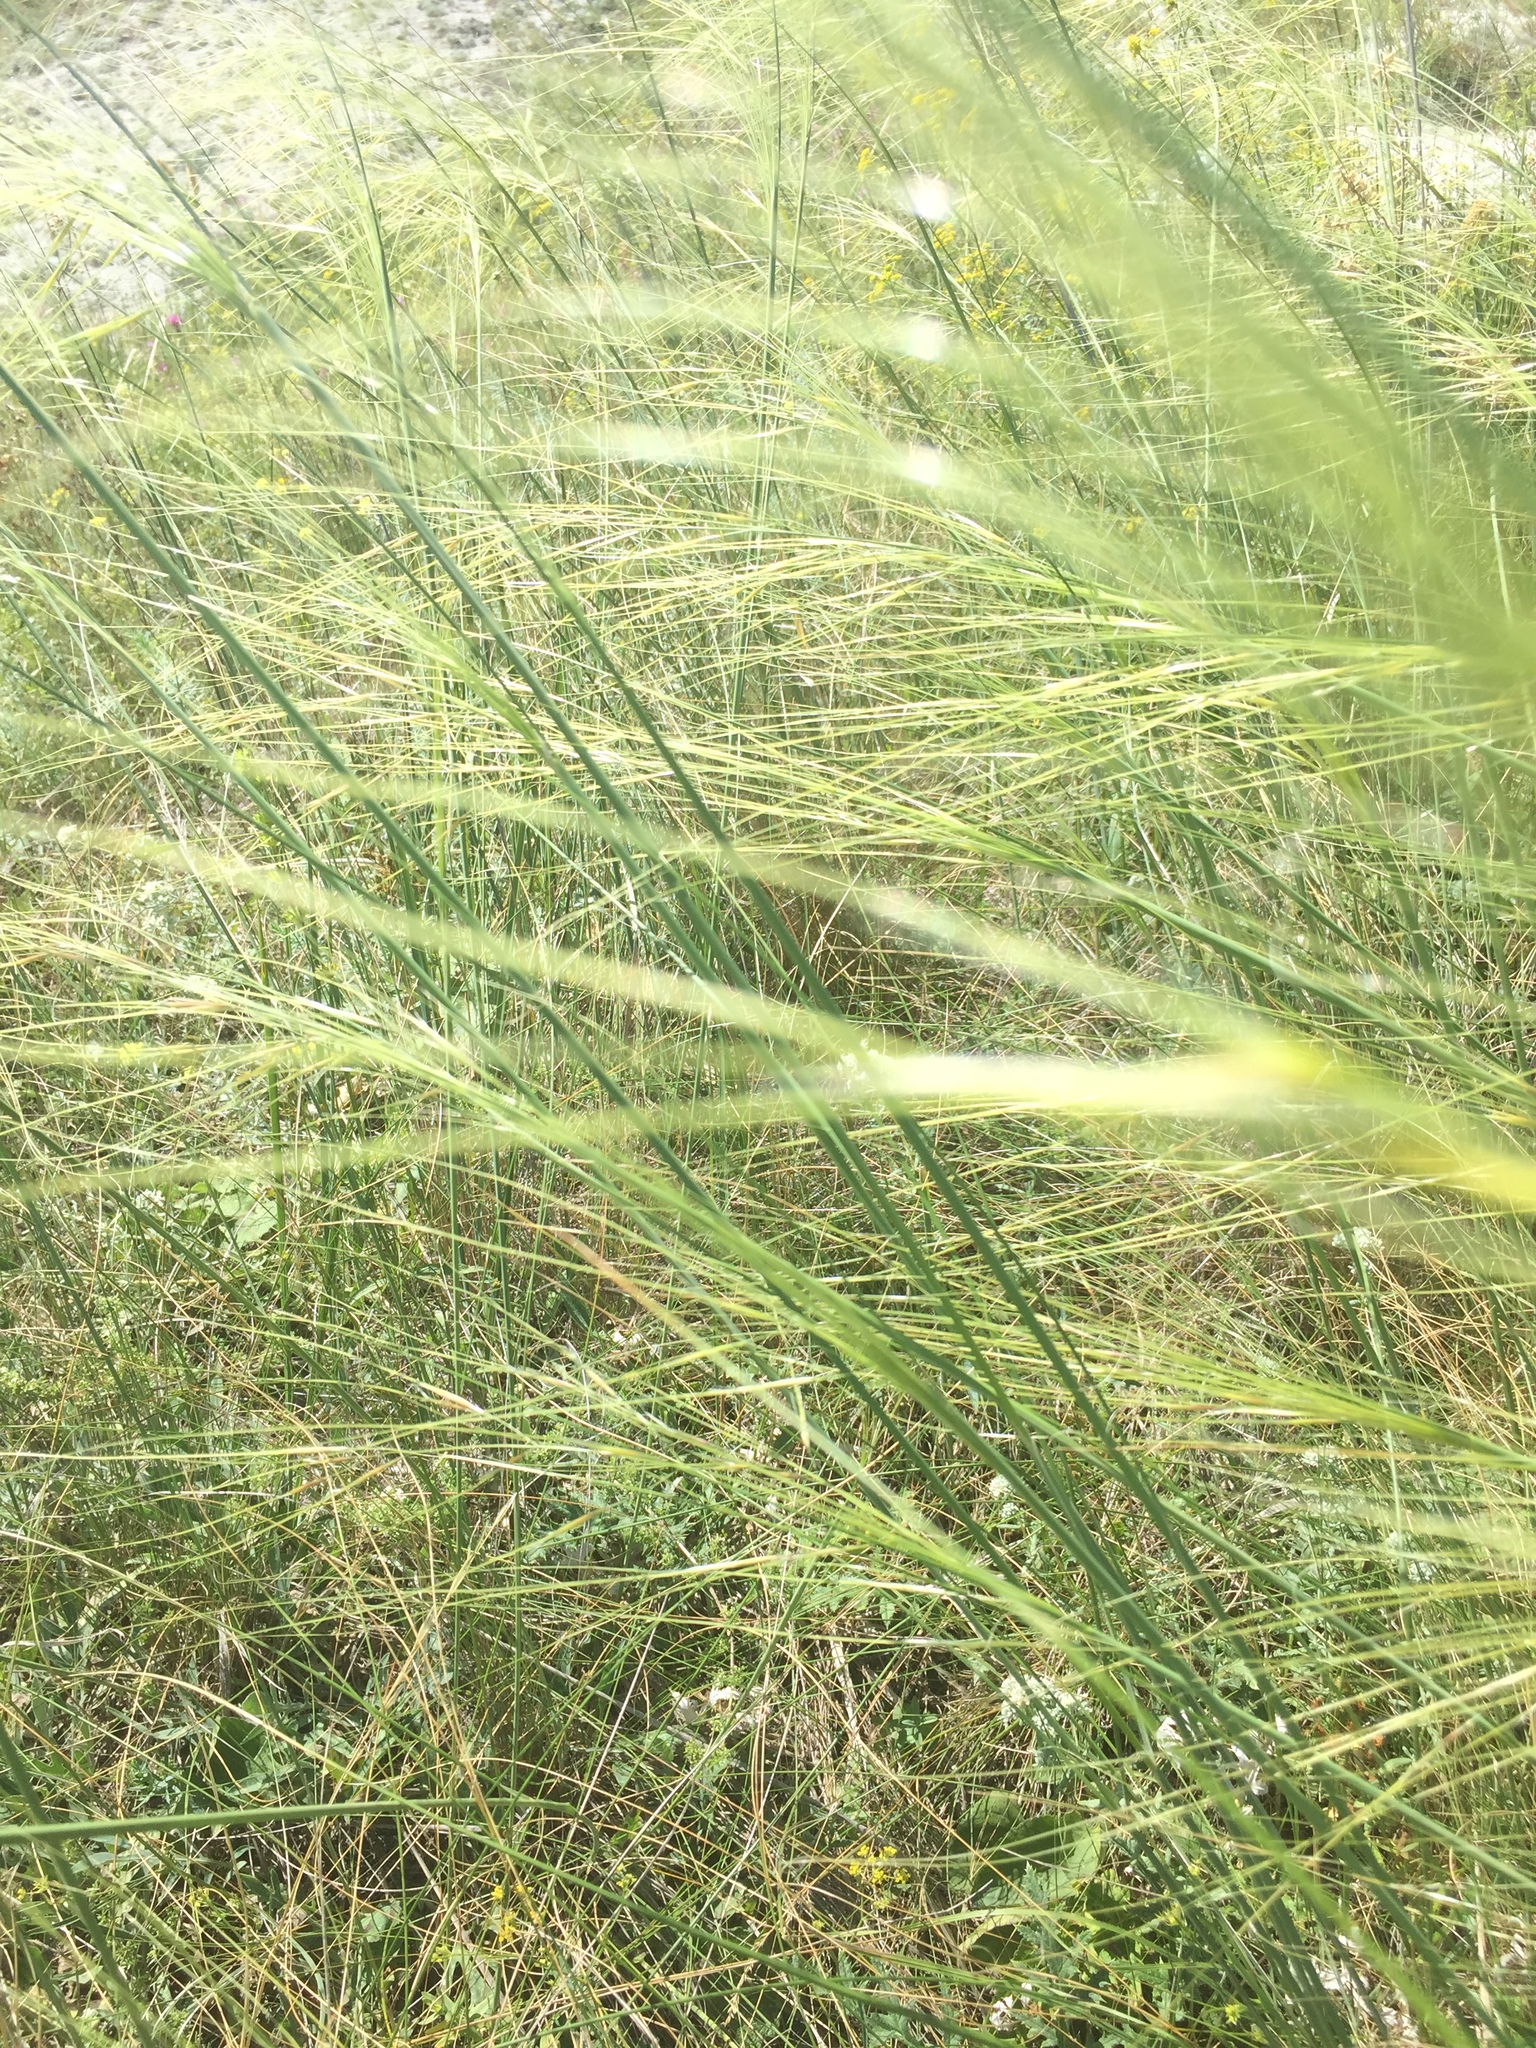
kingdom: Plantae
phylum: Tracheophyta
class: Liliopsida
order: Poales
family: Poaceae
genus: Stipa
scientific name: Stipa capillata
